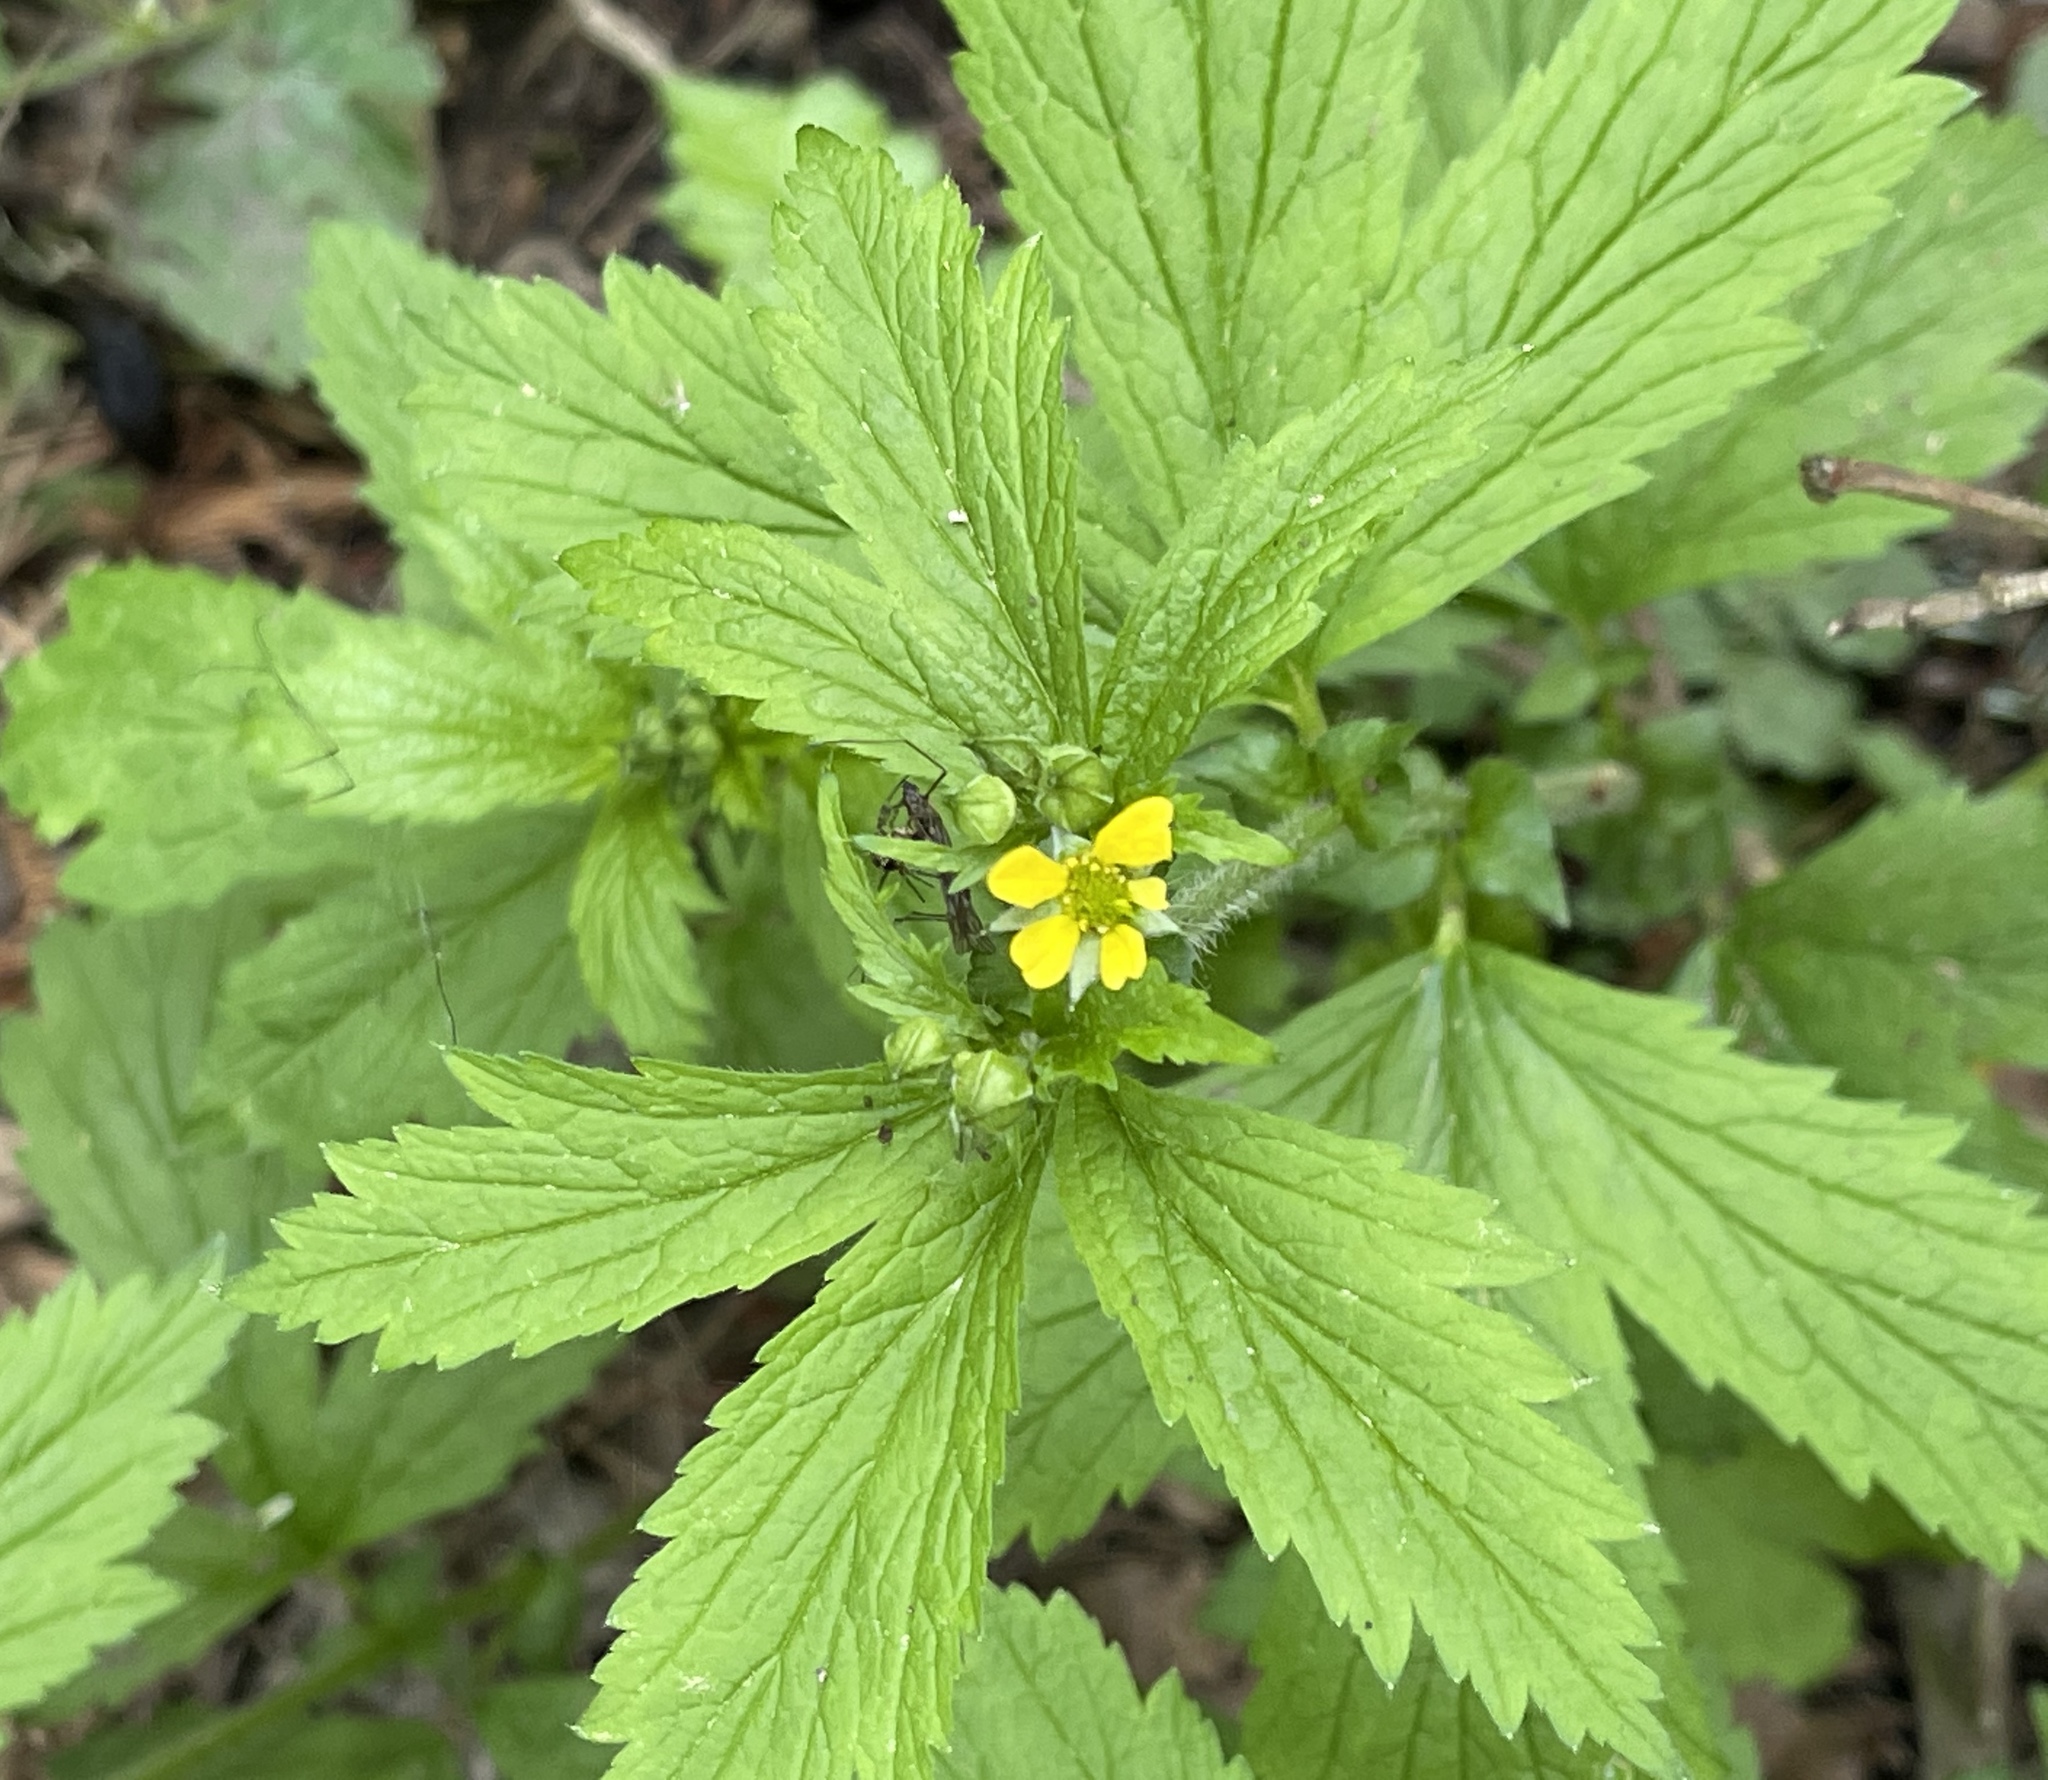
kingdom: Plantae
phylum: Tracheophyta
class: Magnoliopsida
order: Rosales
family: Rosaceae
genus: Geum
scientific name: Geum macrophyllum
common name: Large-leaved avens
